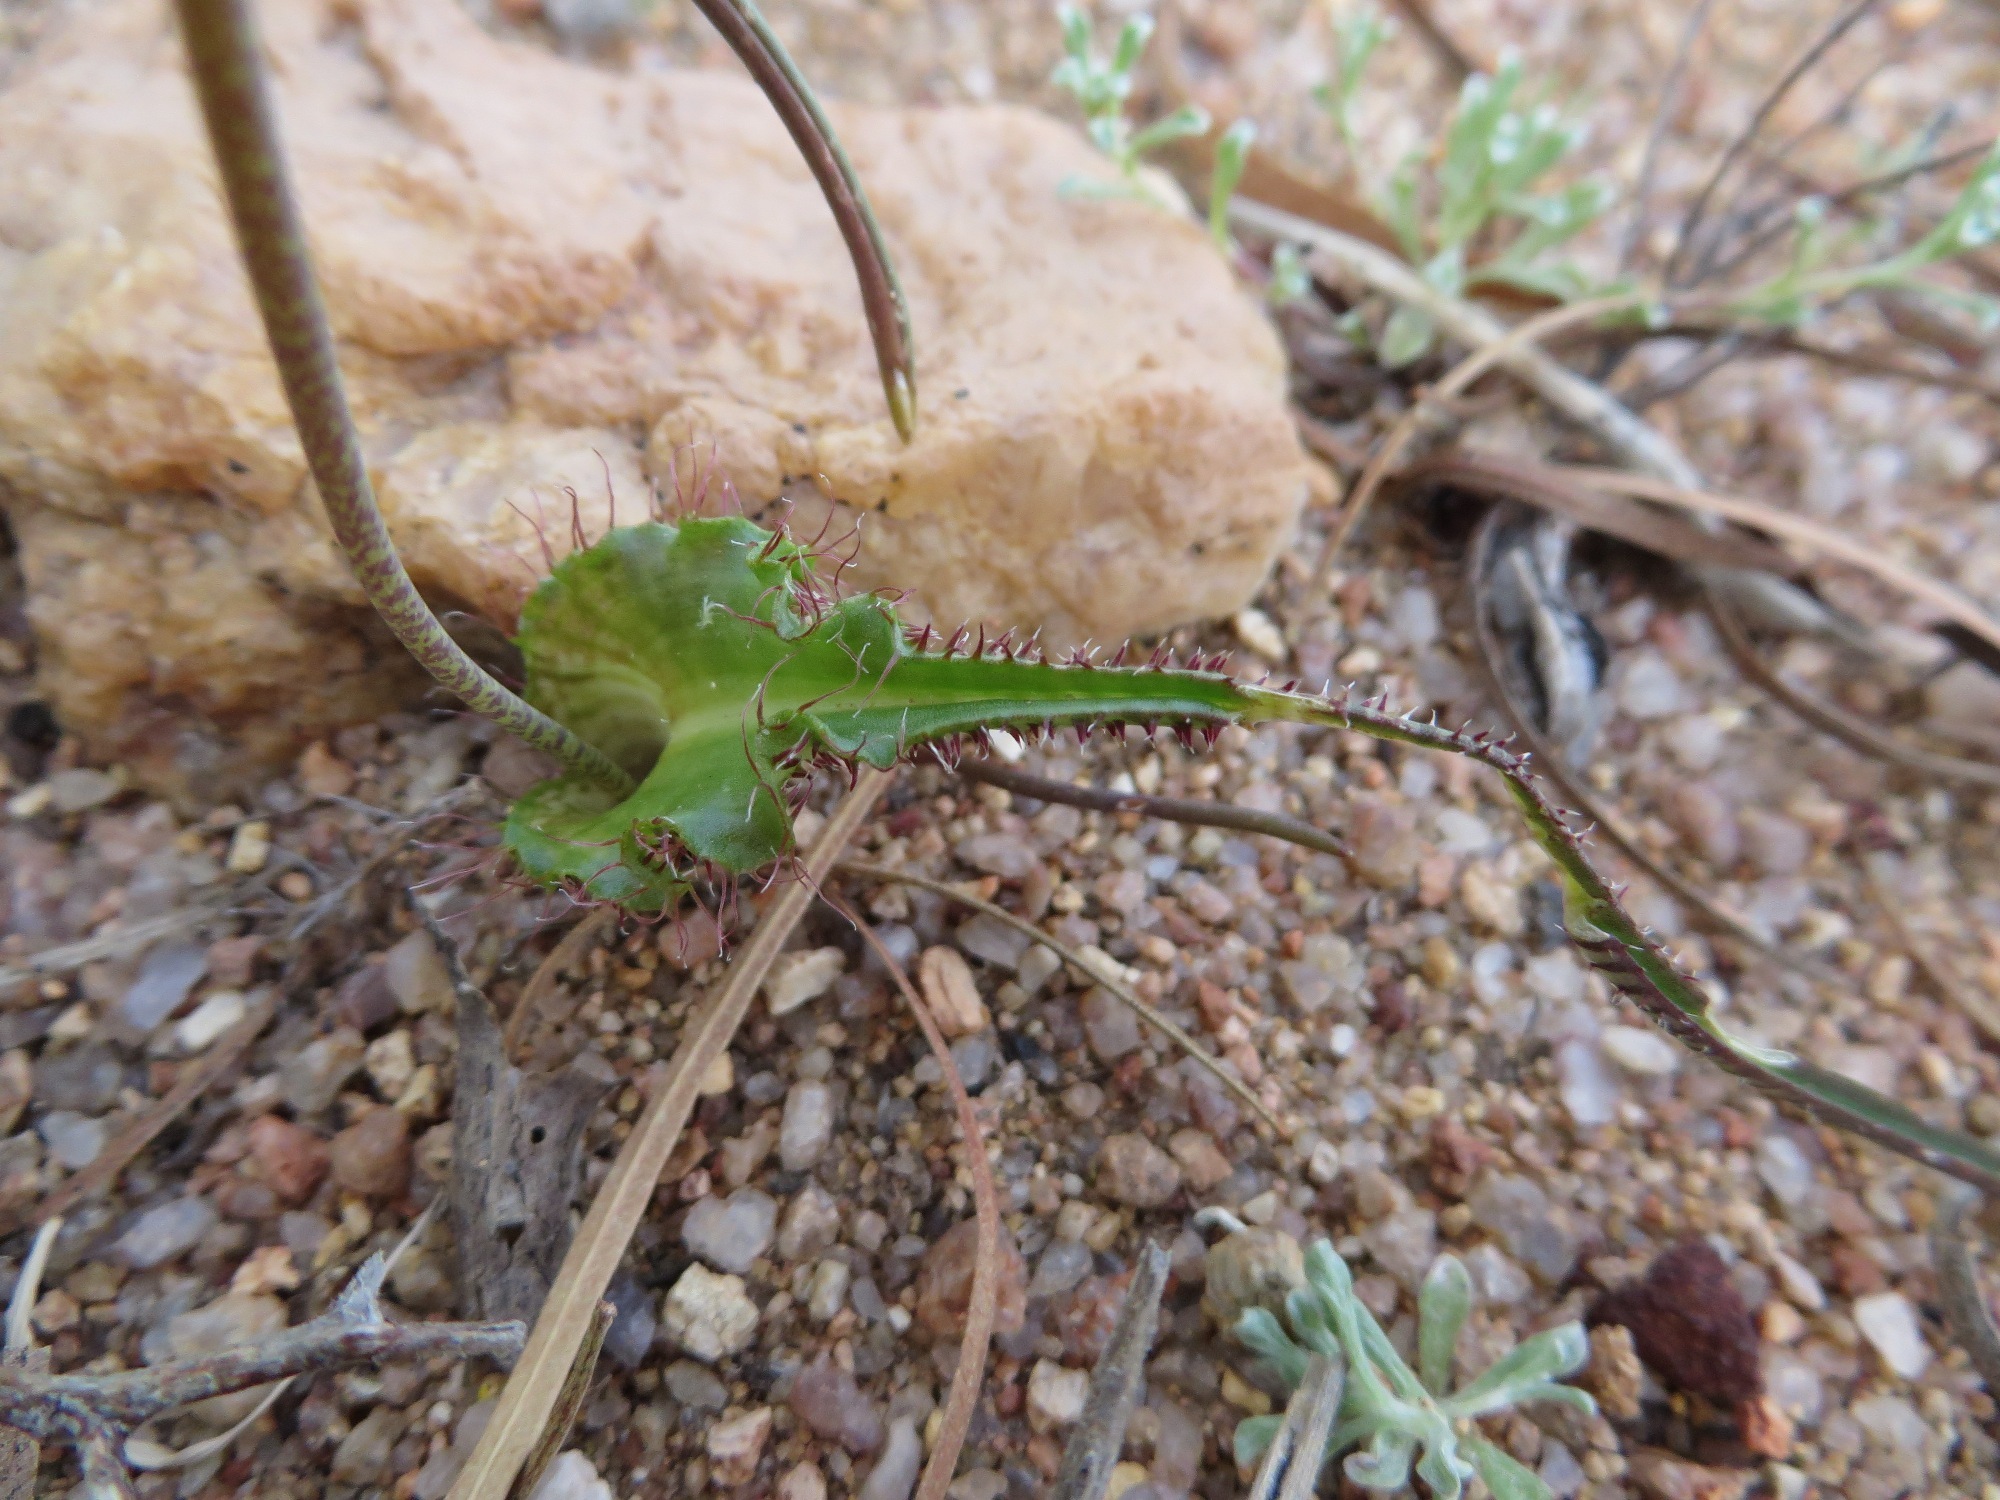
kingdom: Plantae
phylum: Tracheophyta
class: Liliopsida
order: Asparagales
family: Asparagaceae
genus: Lachenalia
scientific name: Lachenalia hirta
